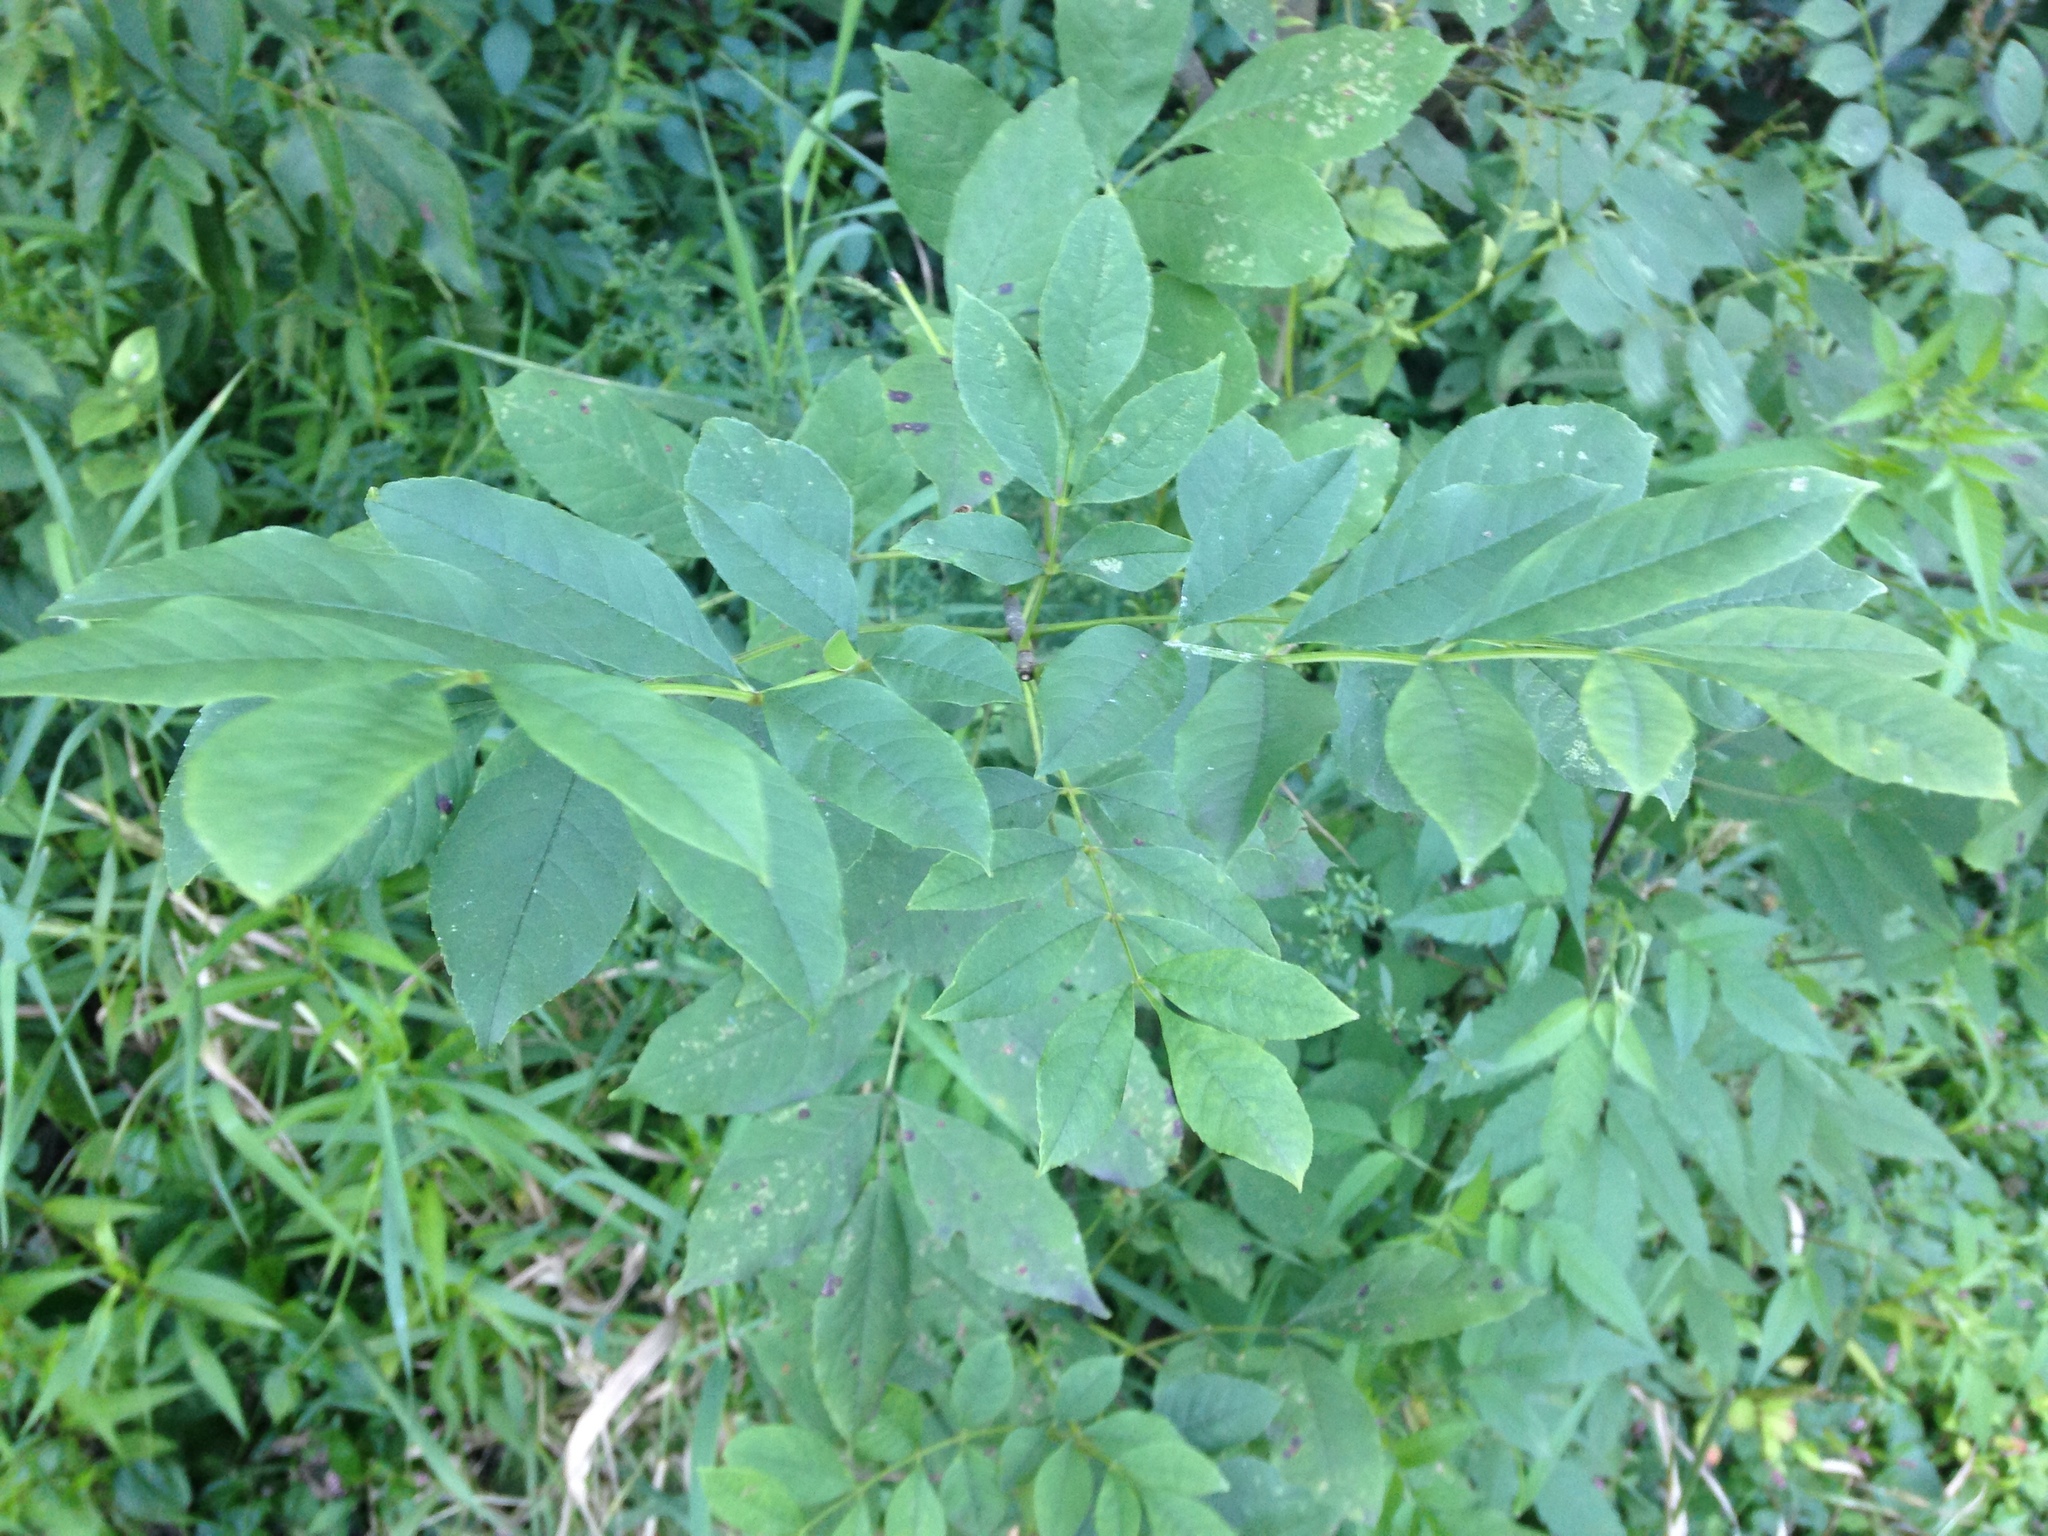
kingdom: Plantae
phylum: Tracheophyta
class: Magnoliopsida
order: Lamiales
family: Oleaceae
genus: Fraxinus
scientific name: Fraxinus pennsylvanica
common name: Green ash
